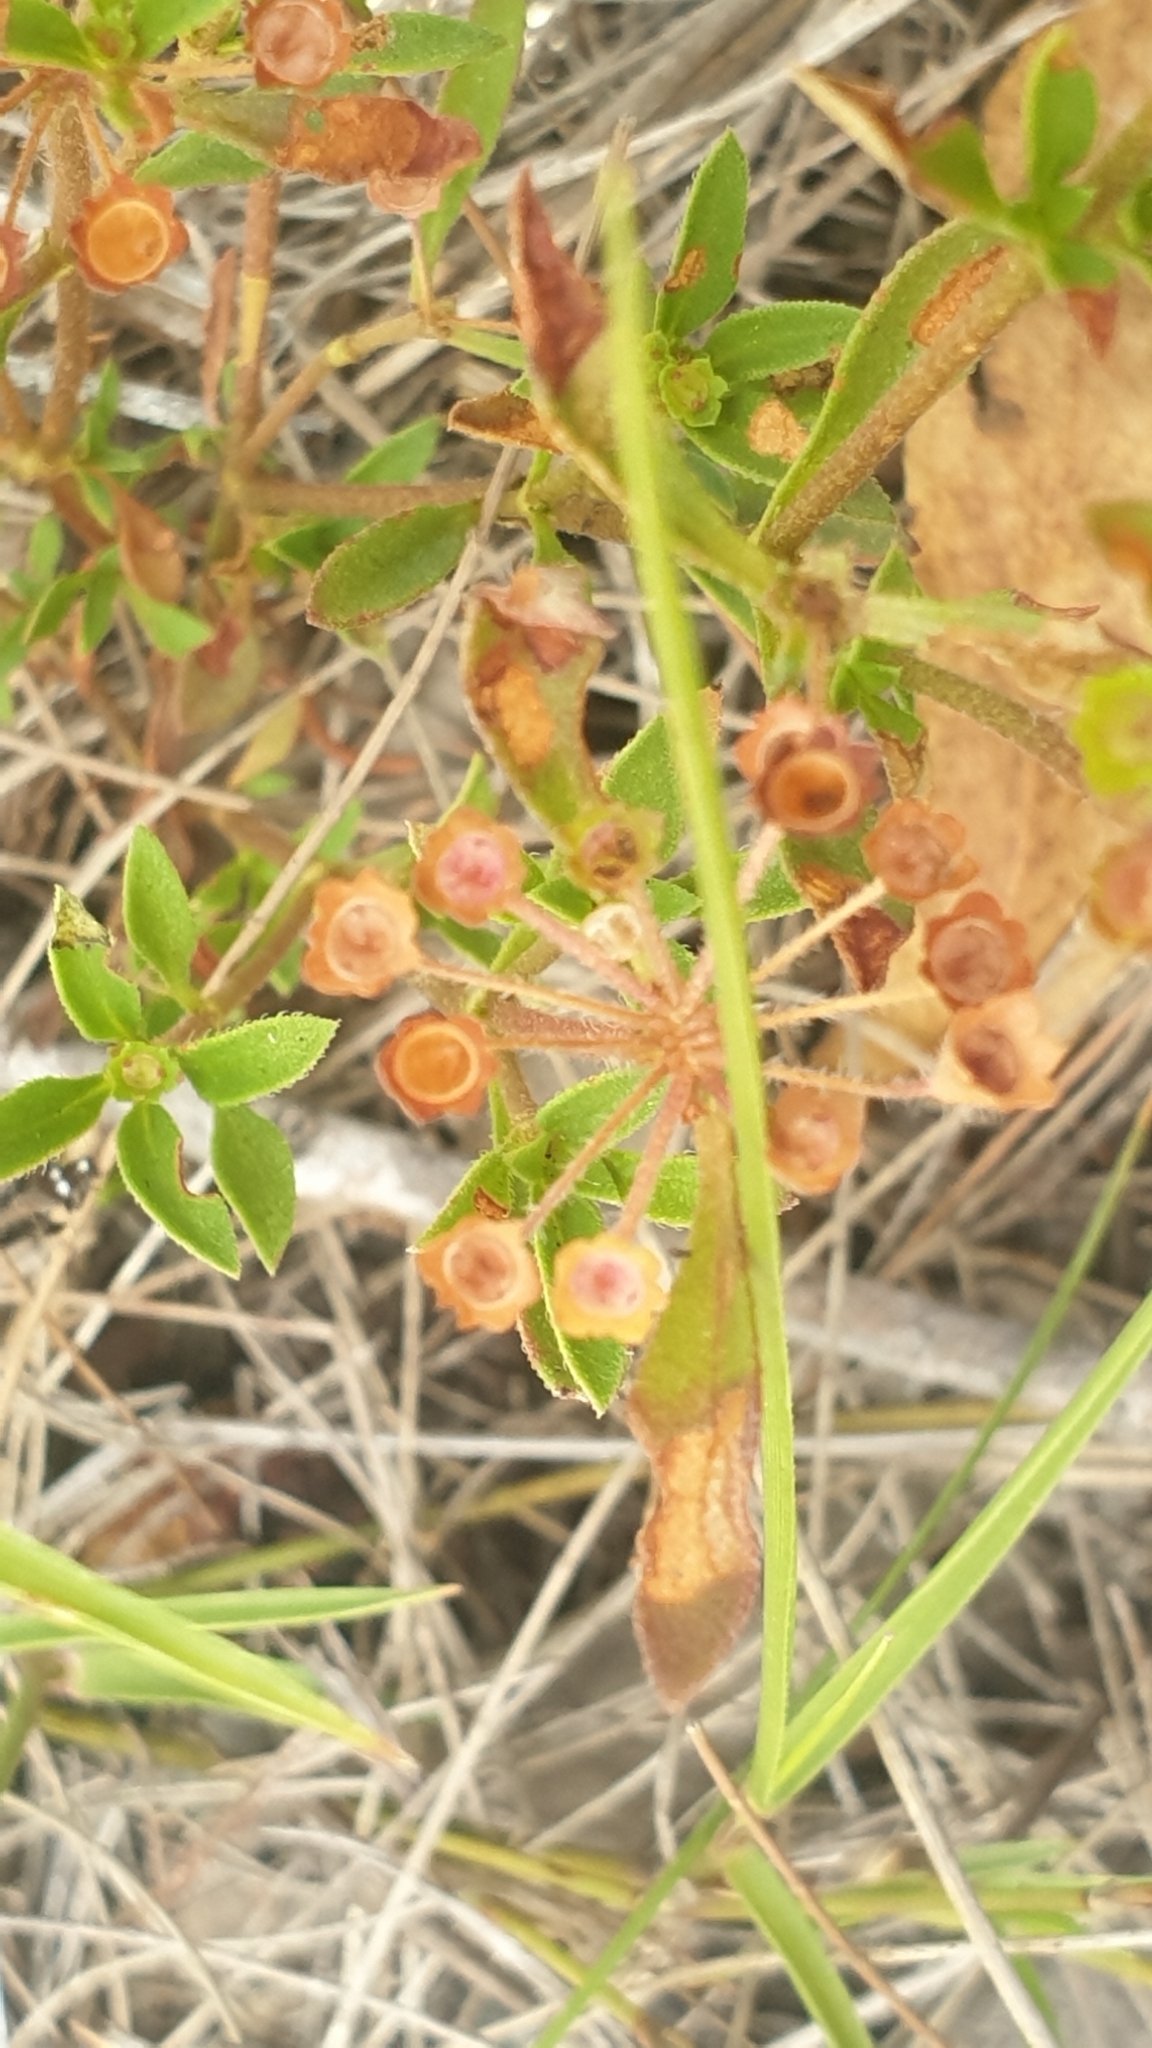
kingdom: Plantae
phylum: Tracheophyta
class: Magnoliopsida
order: Gentianales
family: Rubiaceae
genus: Pomax
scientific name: Pomax umbellata
